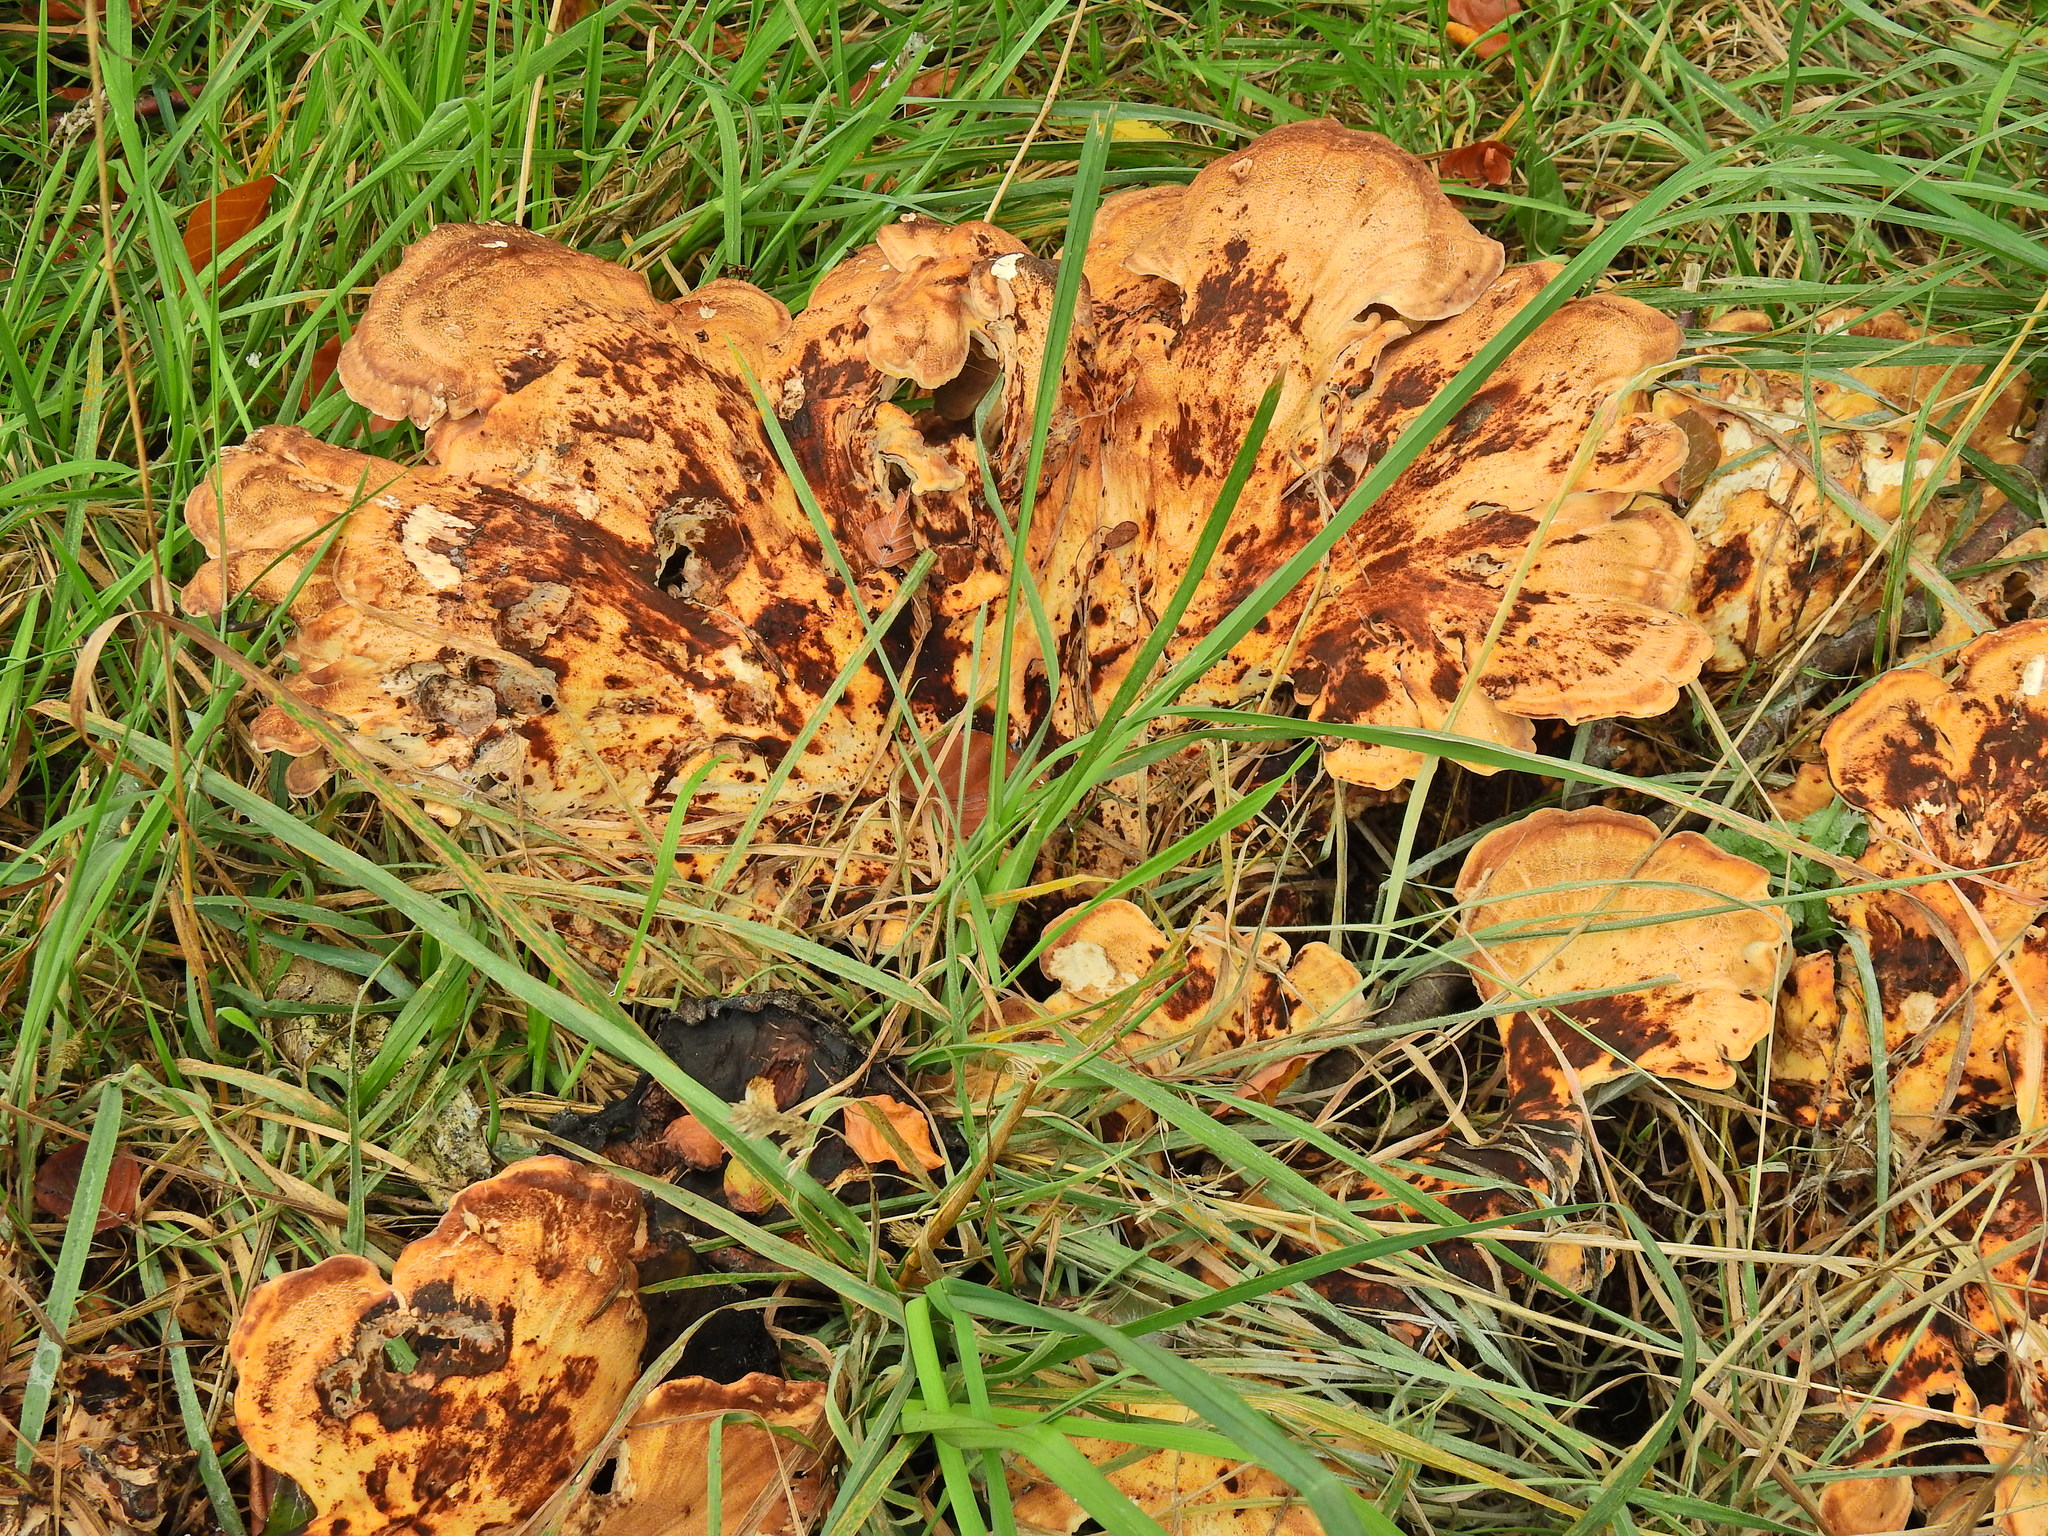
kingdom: Fungi
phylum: Basidiomycota
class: Agaricomycetes
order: Polyporales
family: Meripilaceae
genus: Meripilus
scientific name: Meripilus giganteus
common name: Giant polypore
